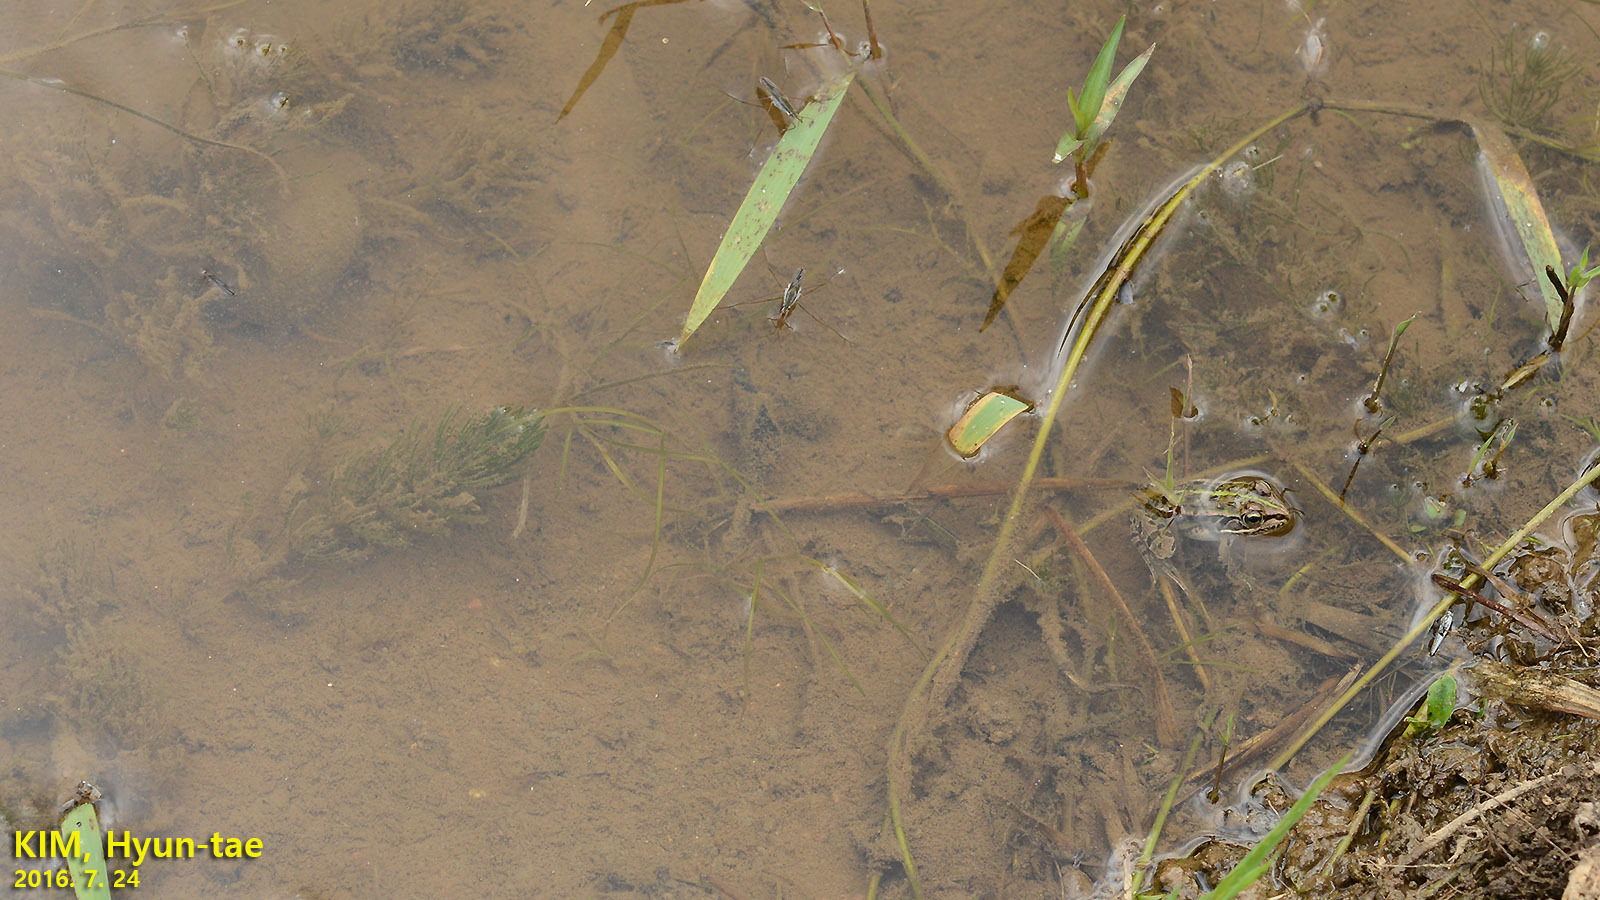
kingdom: Animalia
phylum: Chordata
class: Amphibia
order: Anura
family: Ranidae
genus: Pelophylax
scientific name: Pelophylax nigromaculatus
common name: Black-spotted pond frog
